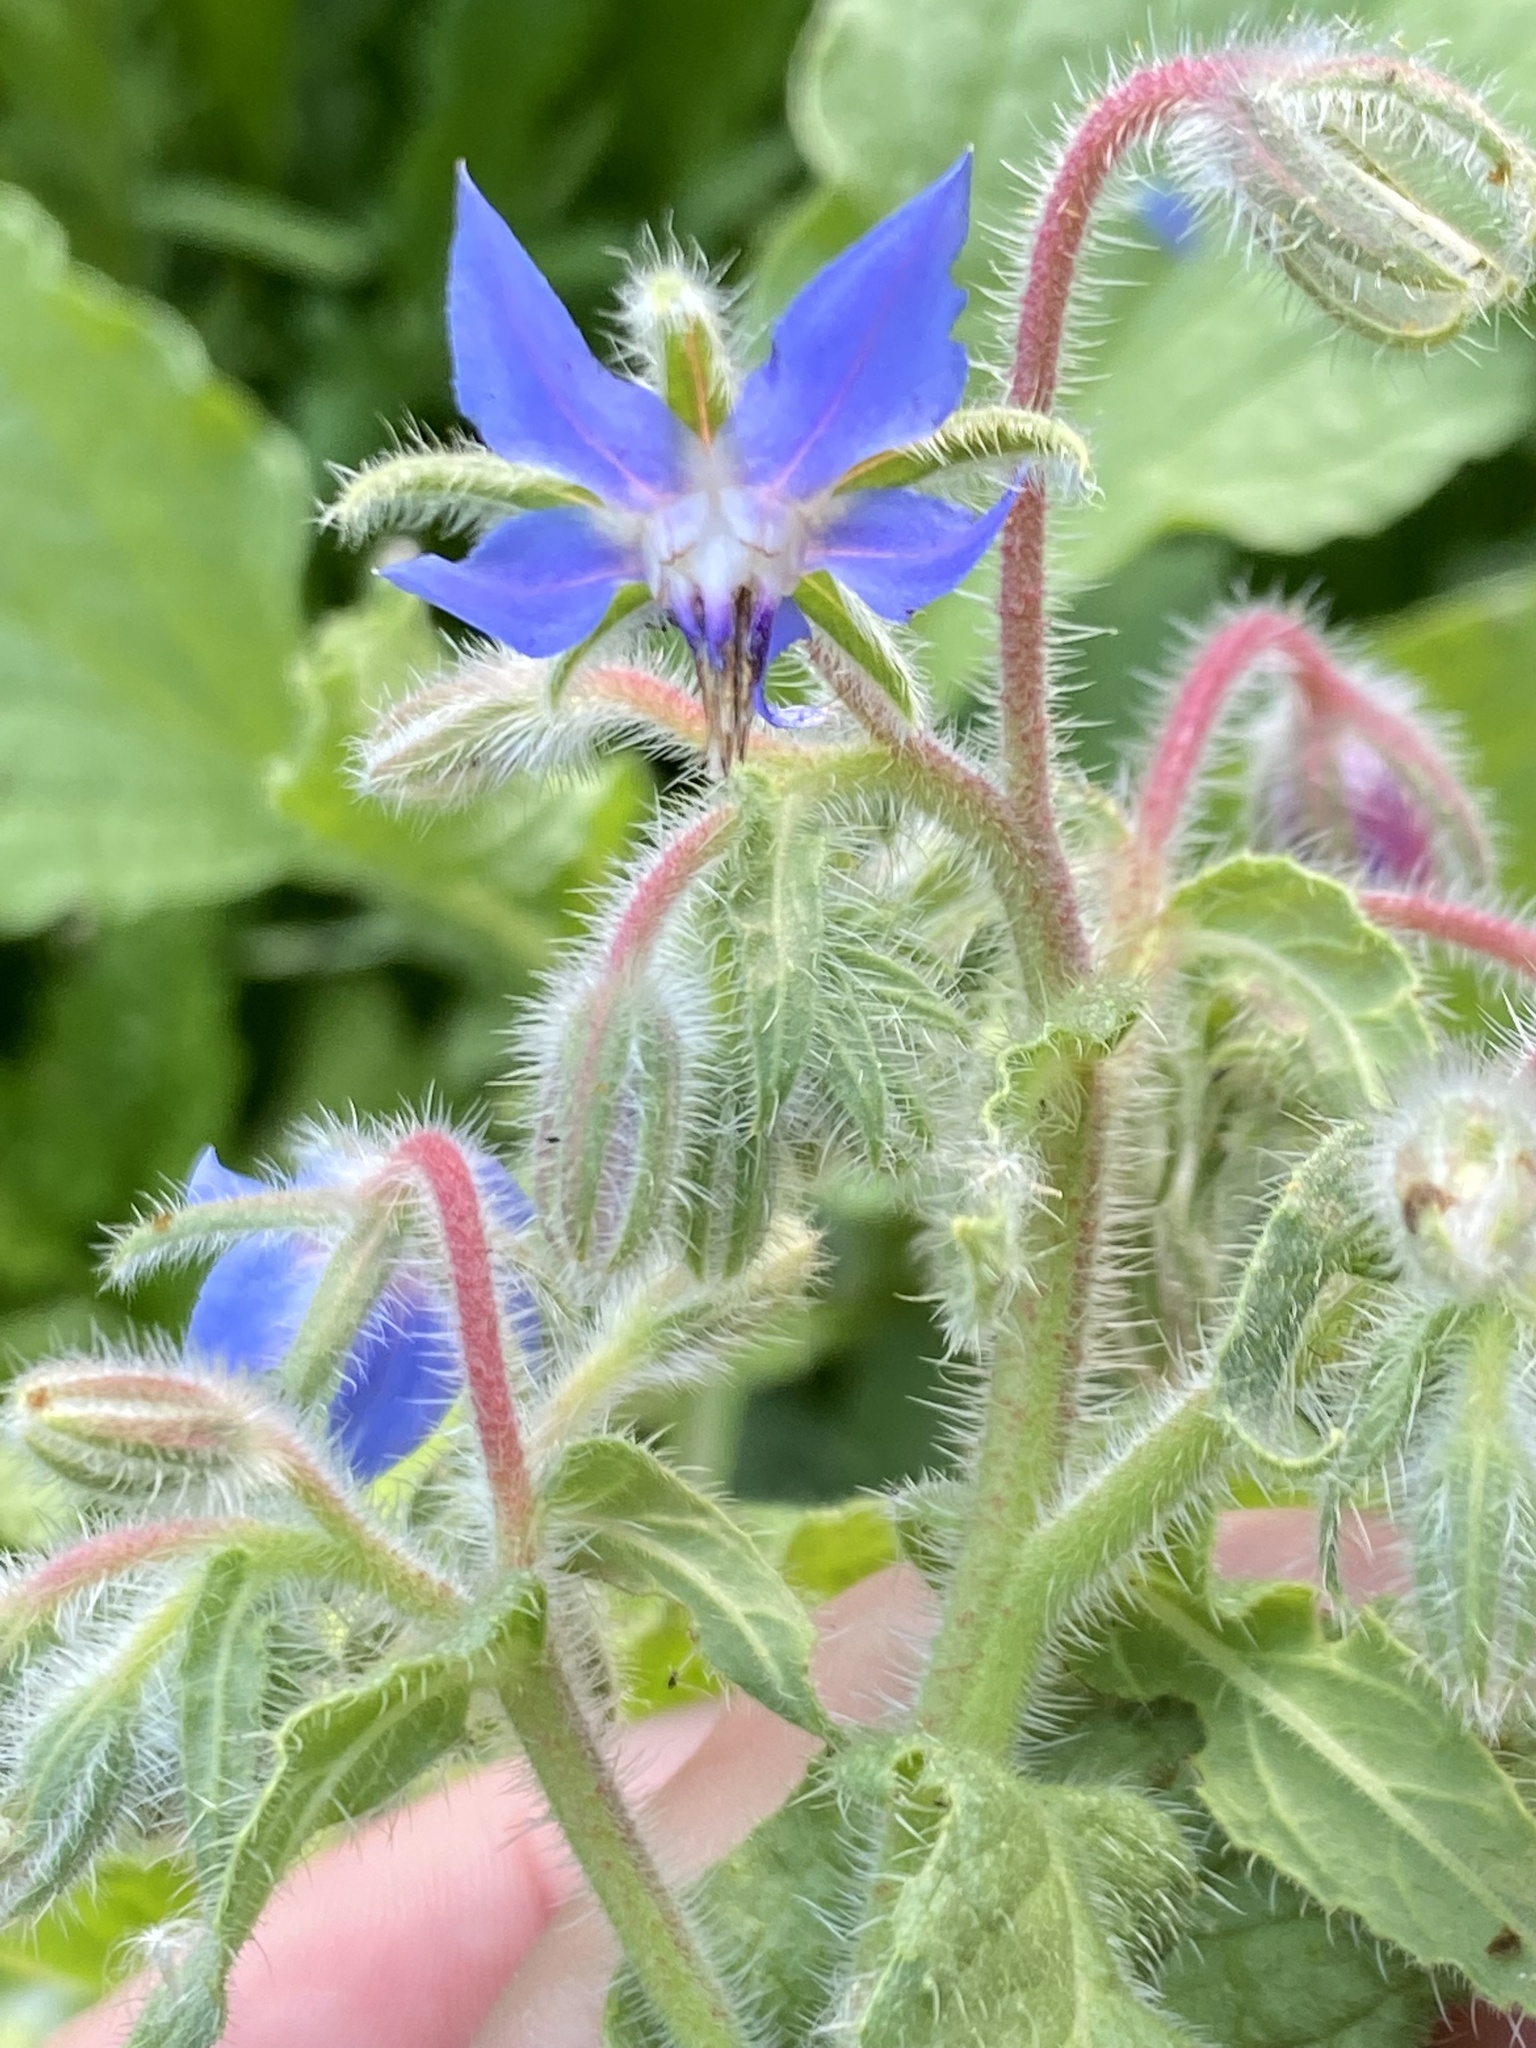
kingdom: Plantae
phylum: Tracheophyta
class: Magnoliopsida
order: Boraginales
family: Boraginaceae
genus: Borago
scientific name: Borago officinalis
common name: Borage
